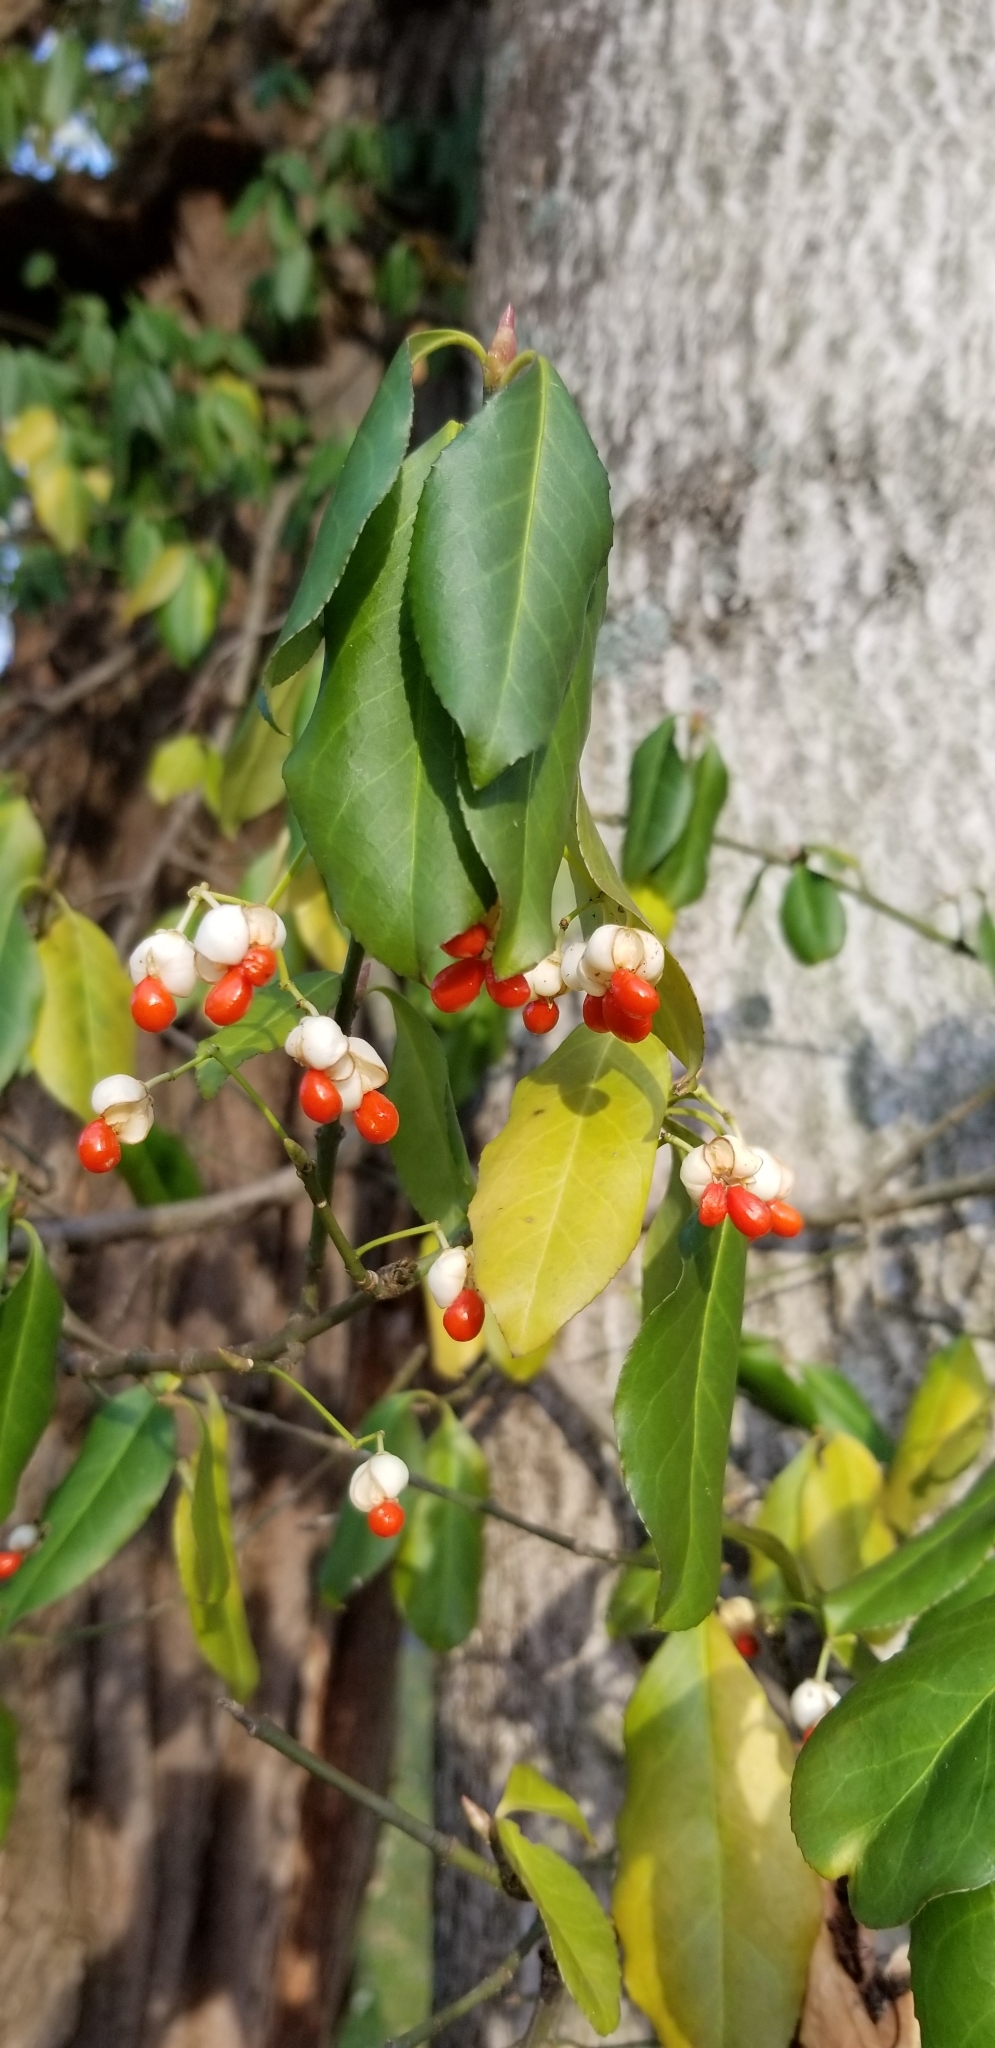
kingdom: Plantae
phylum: Tracheophyta
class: Magnoliopsida
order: Celastrales
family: Celastraceae
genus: Euonymus
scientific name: Euonymus fortunei
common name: Climbing euonymus
